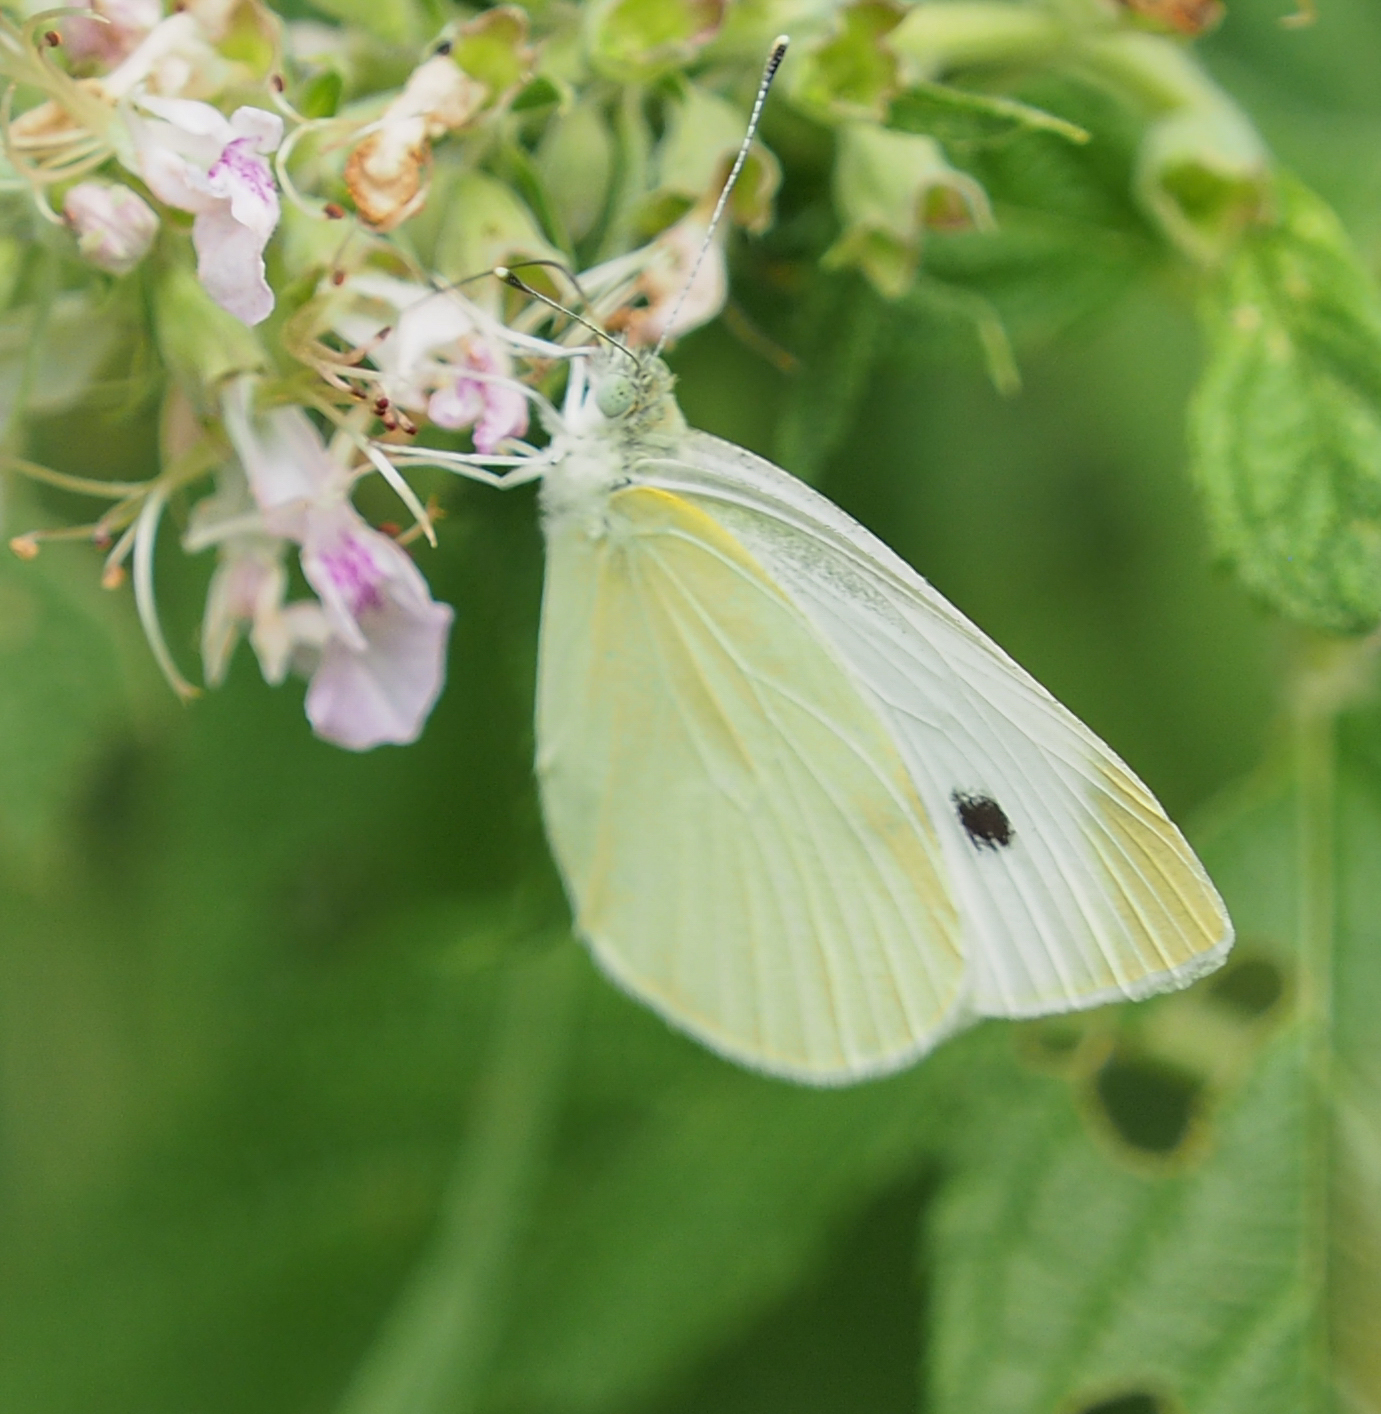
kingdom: Animalia
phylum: Arthropoda
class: Insecta
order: Lepidoptera
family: Pieridae
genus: Pieris
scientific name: Pieris rapae
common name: Small white
